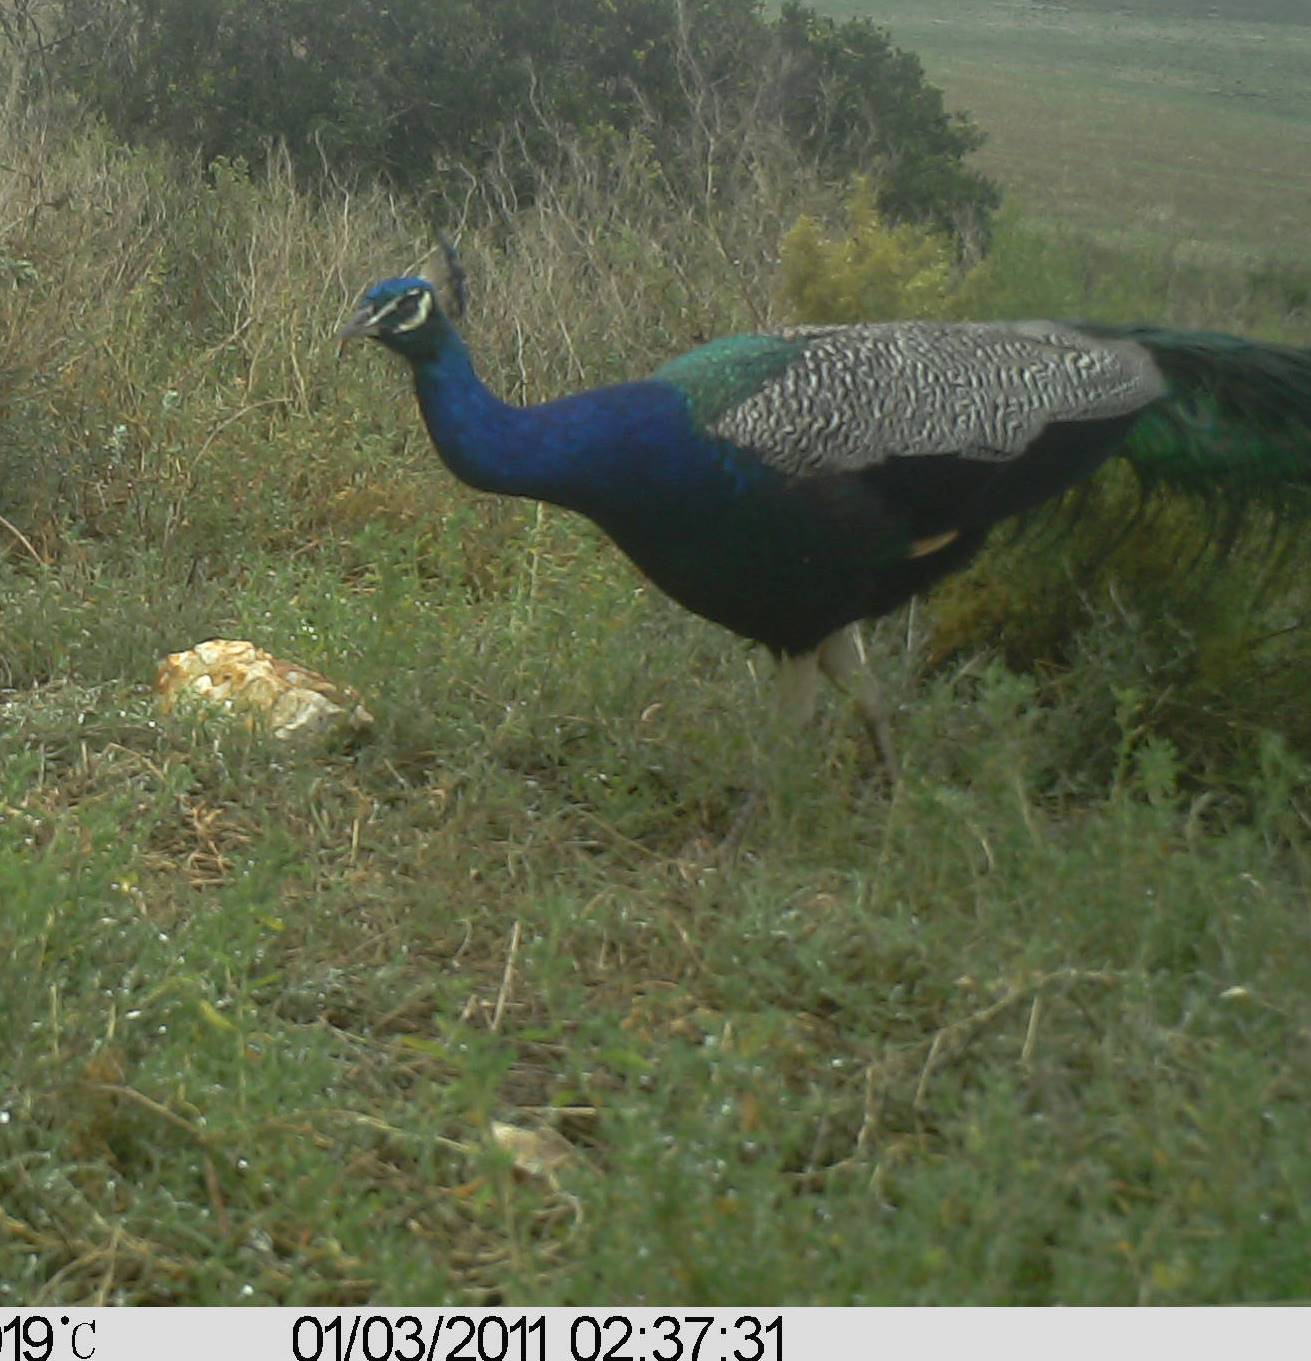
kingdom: Animalia
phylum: Chordata
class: Aves
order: Galliformes
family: Phasianidae
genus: Pavo
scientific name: Pavo cristatus
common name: Indian peafowl
